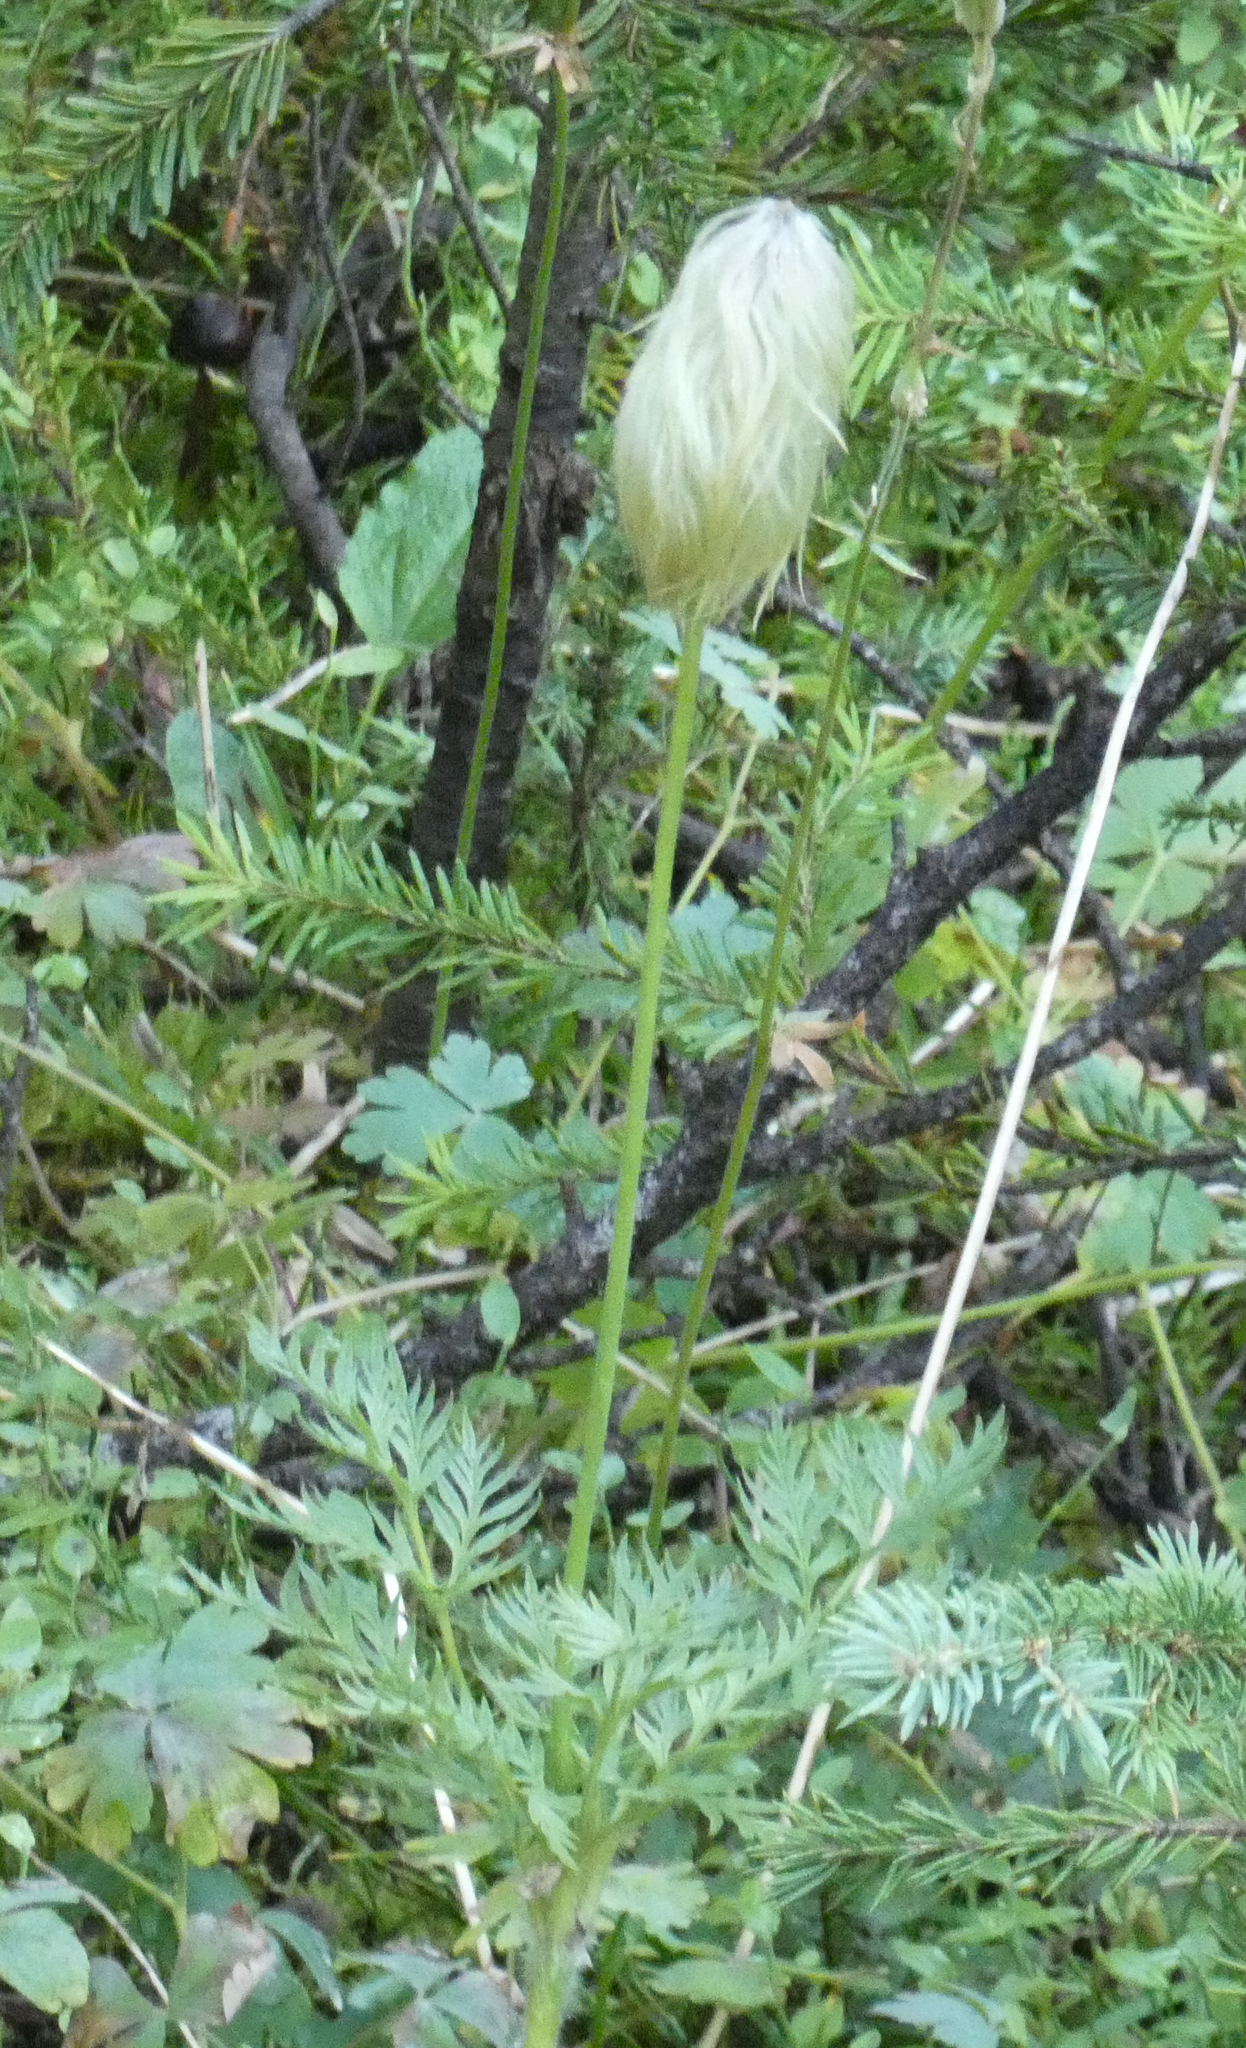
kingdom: Plantae
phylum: Tracheophyta
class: Magnoliopsida
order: Ranunculales
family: Ranunculaceae
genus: Pulsatilla
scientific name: Pulsatilla occidentalis
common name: Mountain pasqueflower
